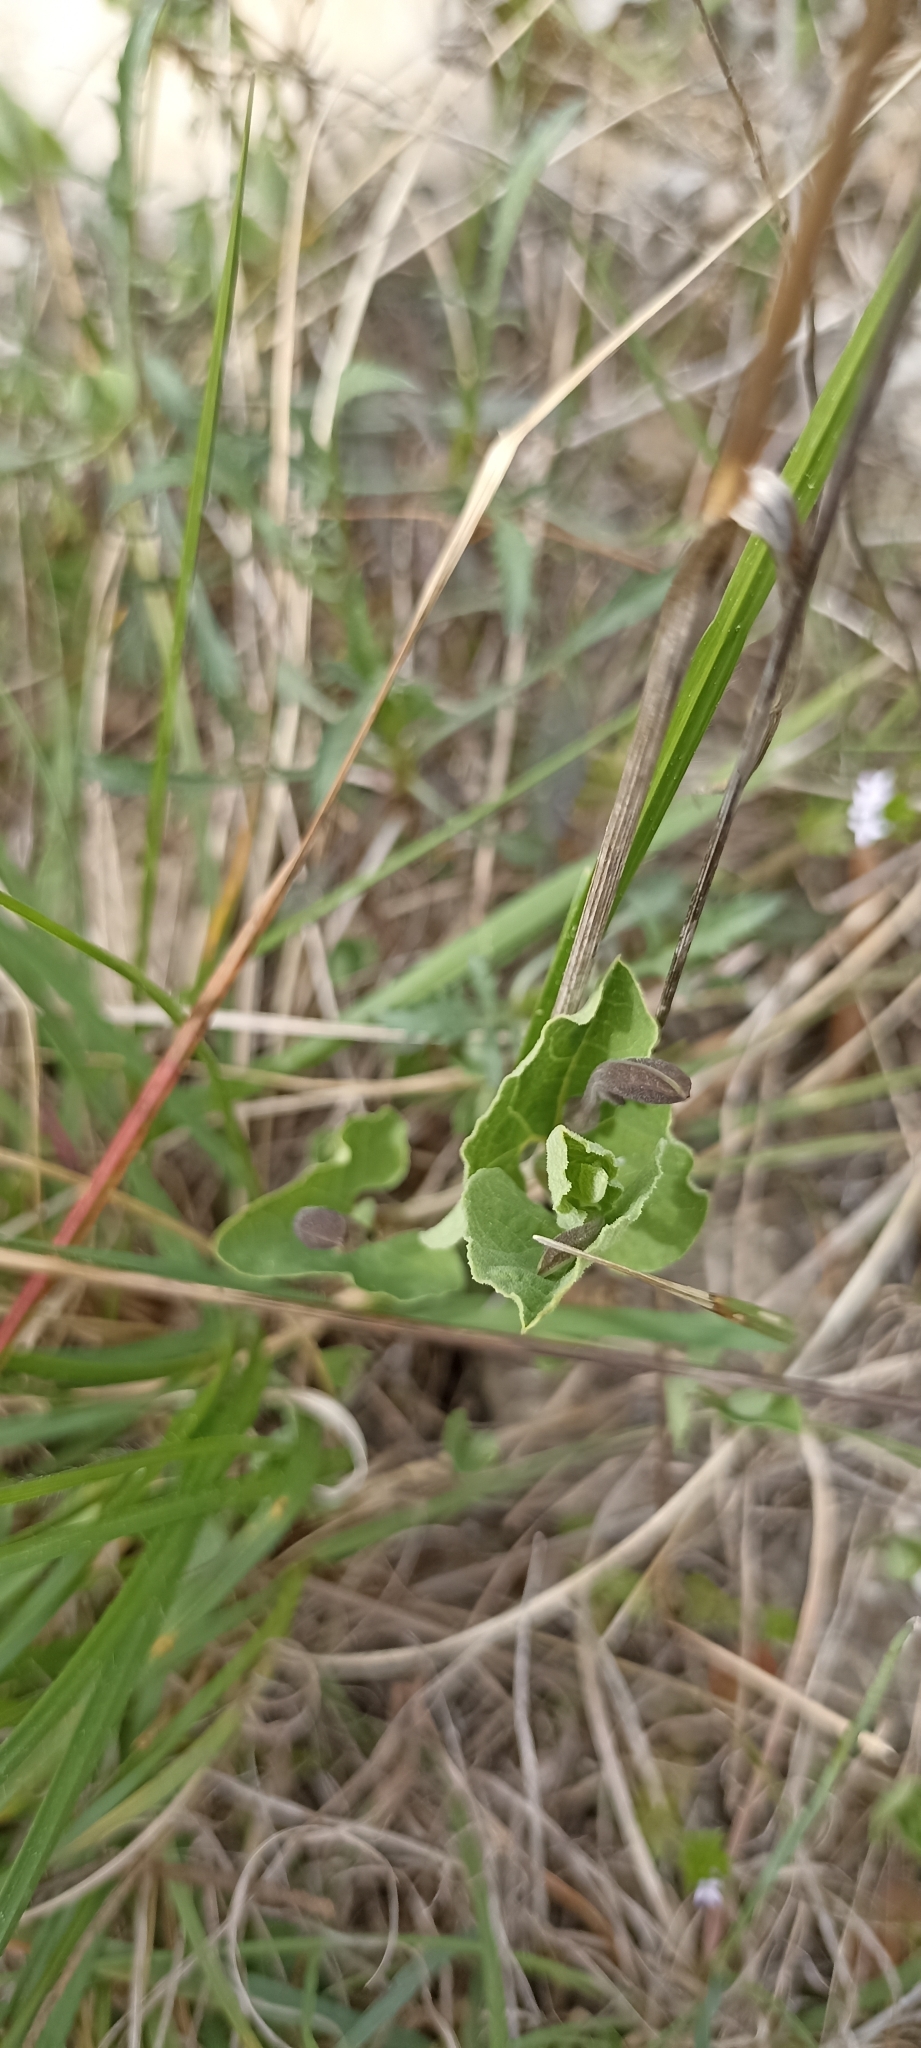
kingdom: Plantae
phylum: Tracheophyta
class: Magnoliopsida
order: Piperales
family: Aristolochiaceae
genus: Aristolochia
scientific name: Aristolochia pistolochia
